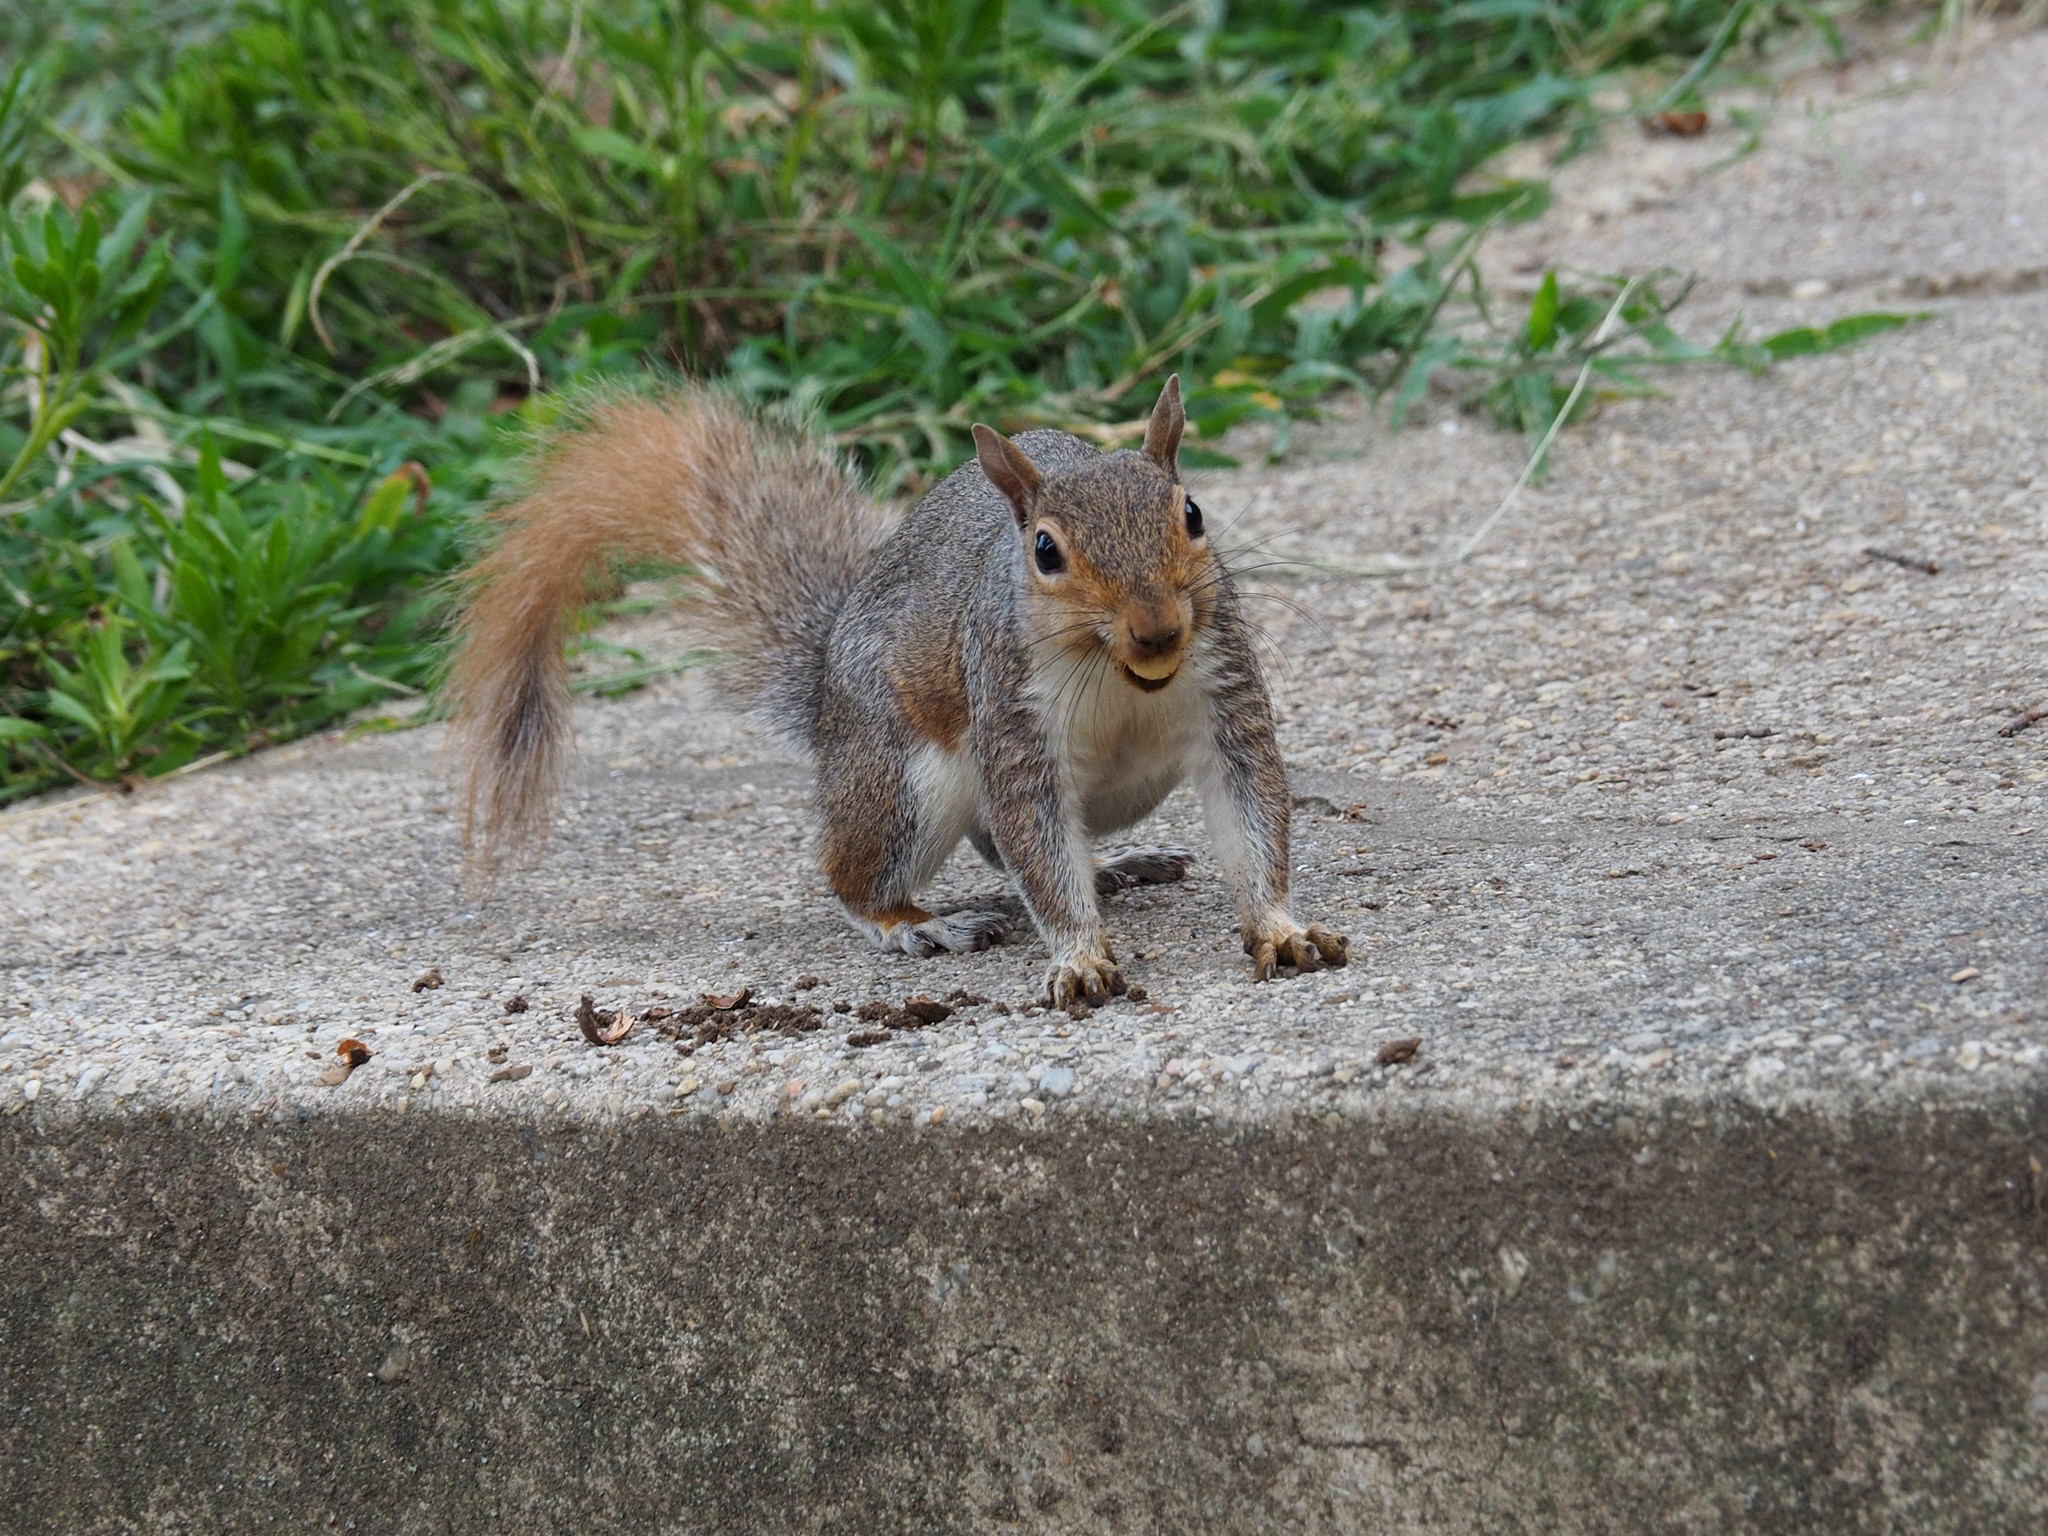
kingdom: Animalia
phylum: Chordata
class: Mammalia
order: Rodentia
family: Sciuridae
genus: Sciurus
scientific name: Sciurus carolinensis
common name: Eastern gray squirrel
